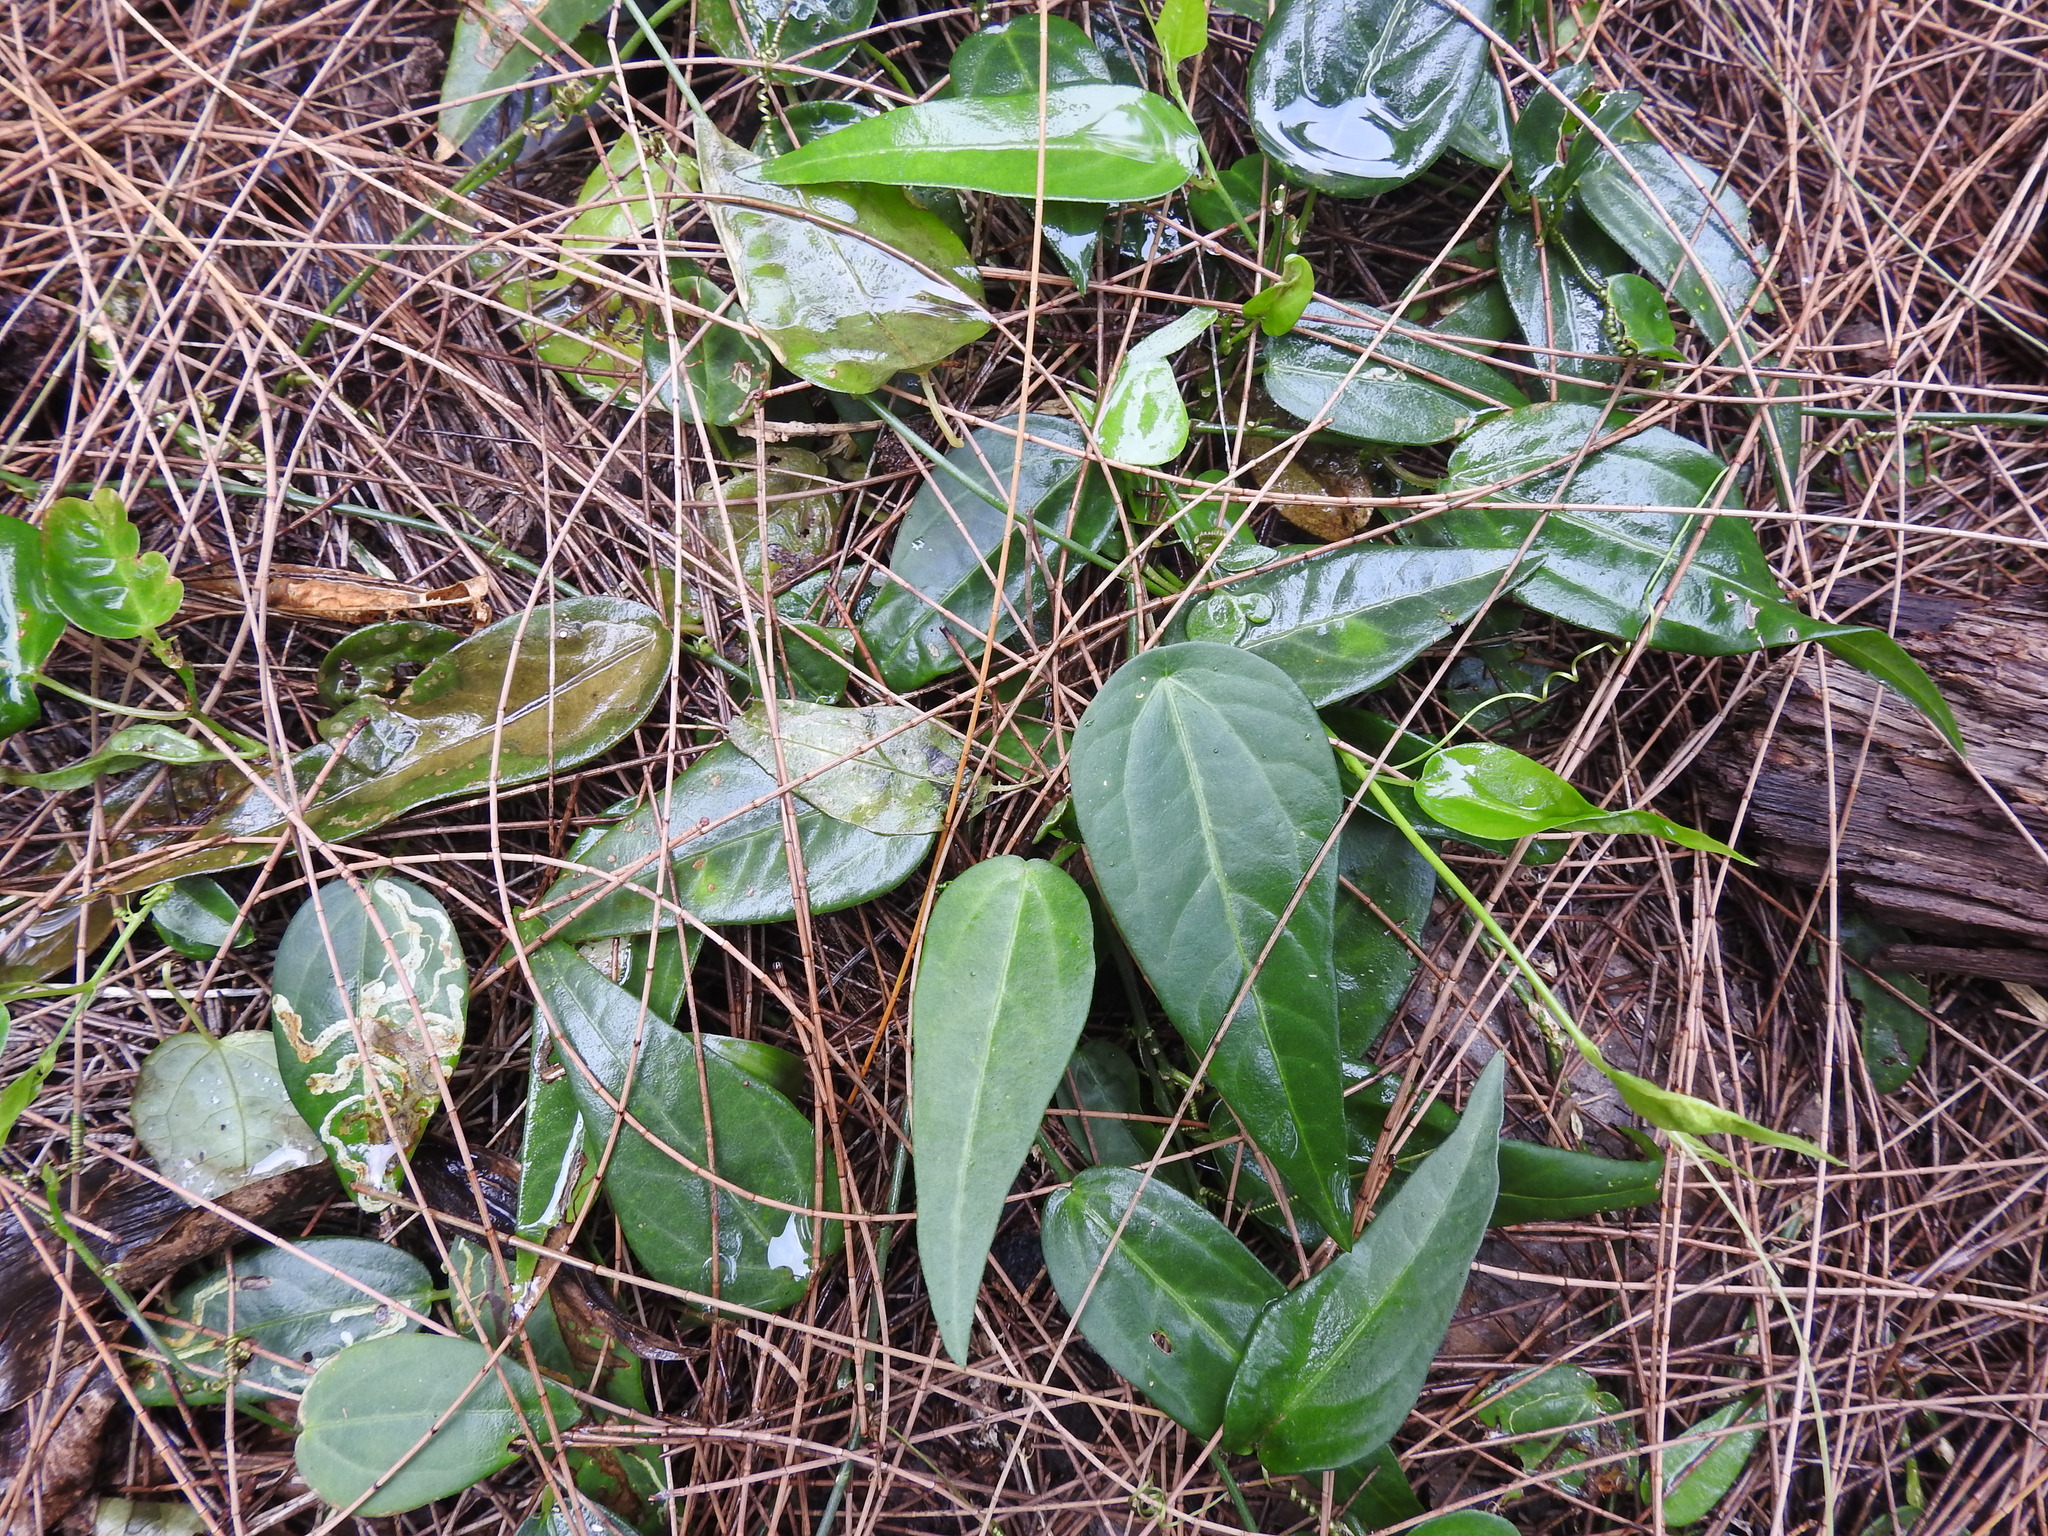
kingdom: Plantae
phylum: Tracheophyta
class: Magnoliopsida
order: Malpighiales
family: Passifloraceae
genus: Passiflora
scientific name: Passiflora pallida
